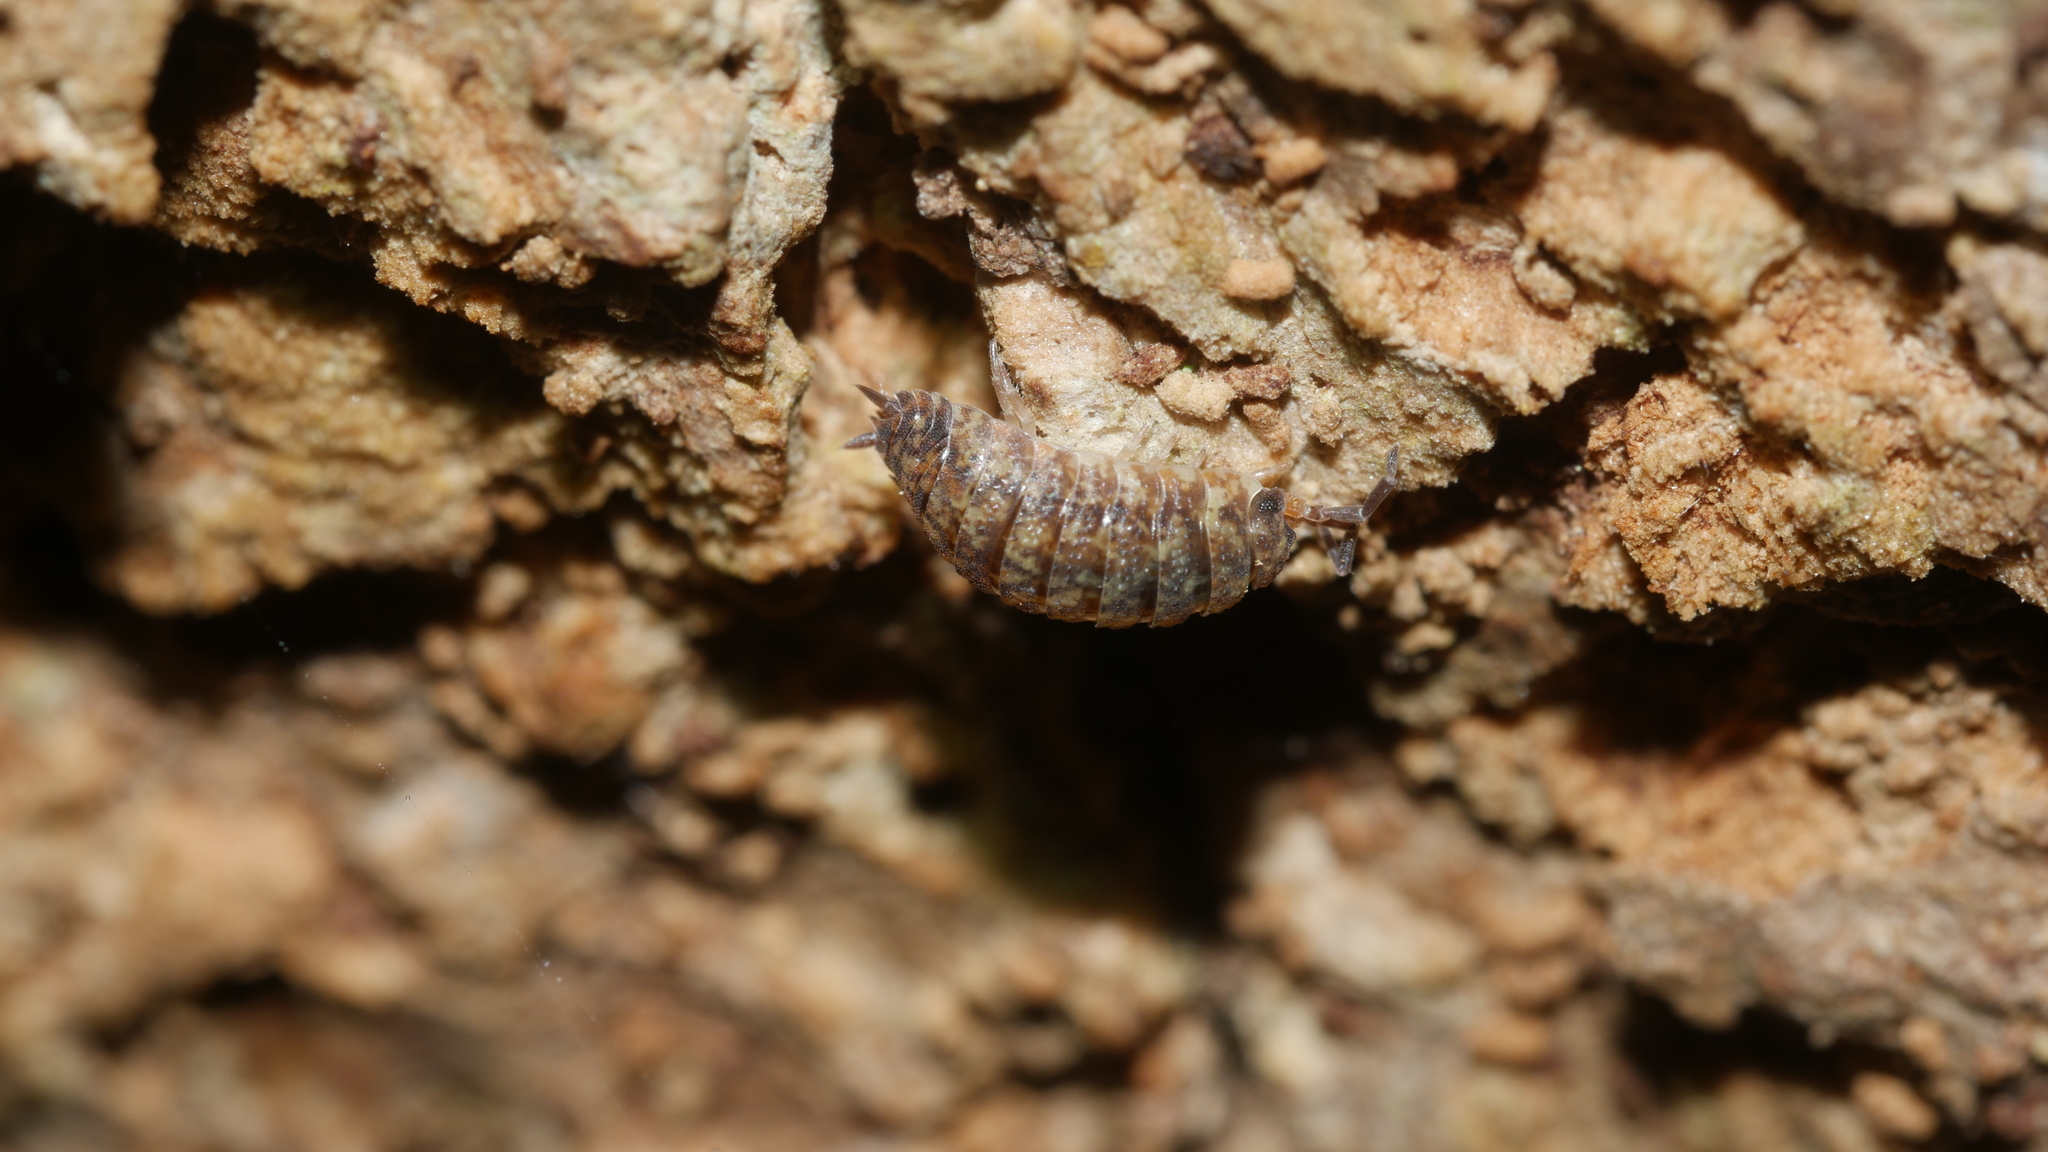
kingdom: Animalia
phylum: Arthropoda
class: Malacostraca
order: Isopoda
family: Porcellionidae
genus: Porcellio
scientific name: Porcellio scaber
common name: Common rough woodlouse
